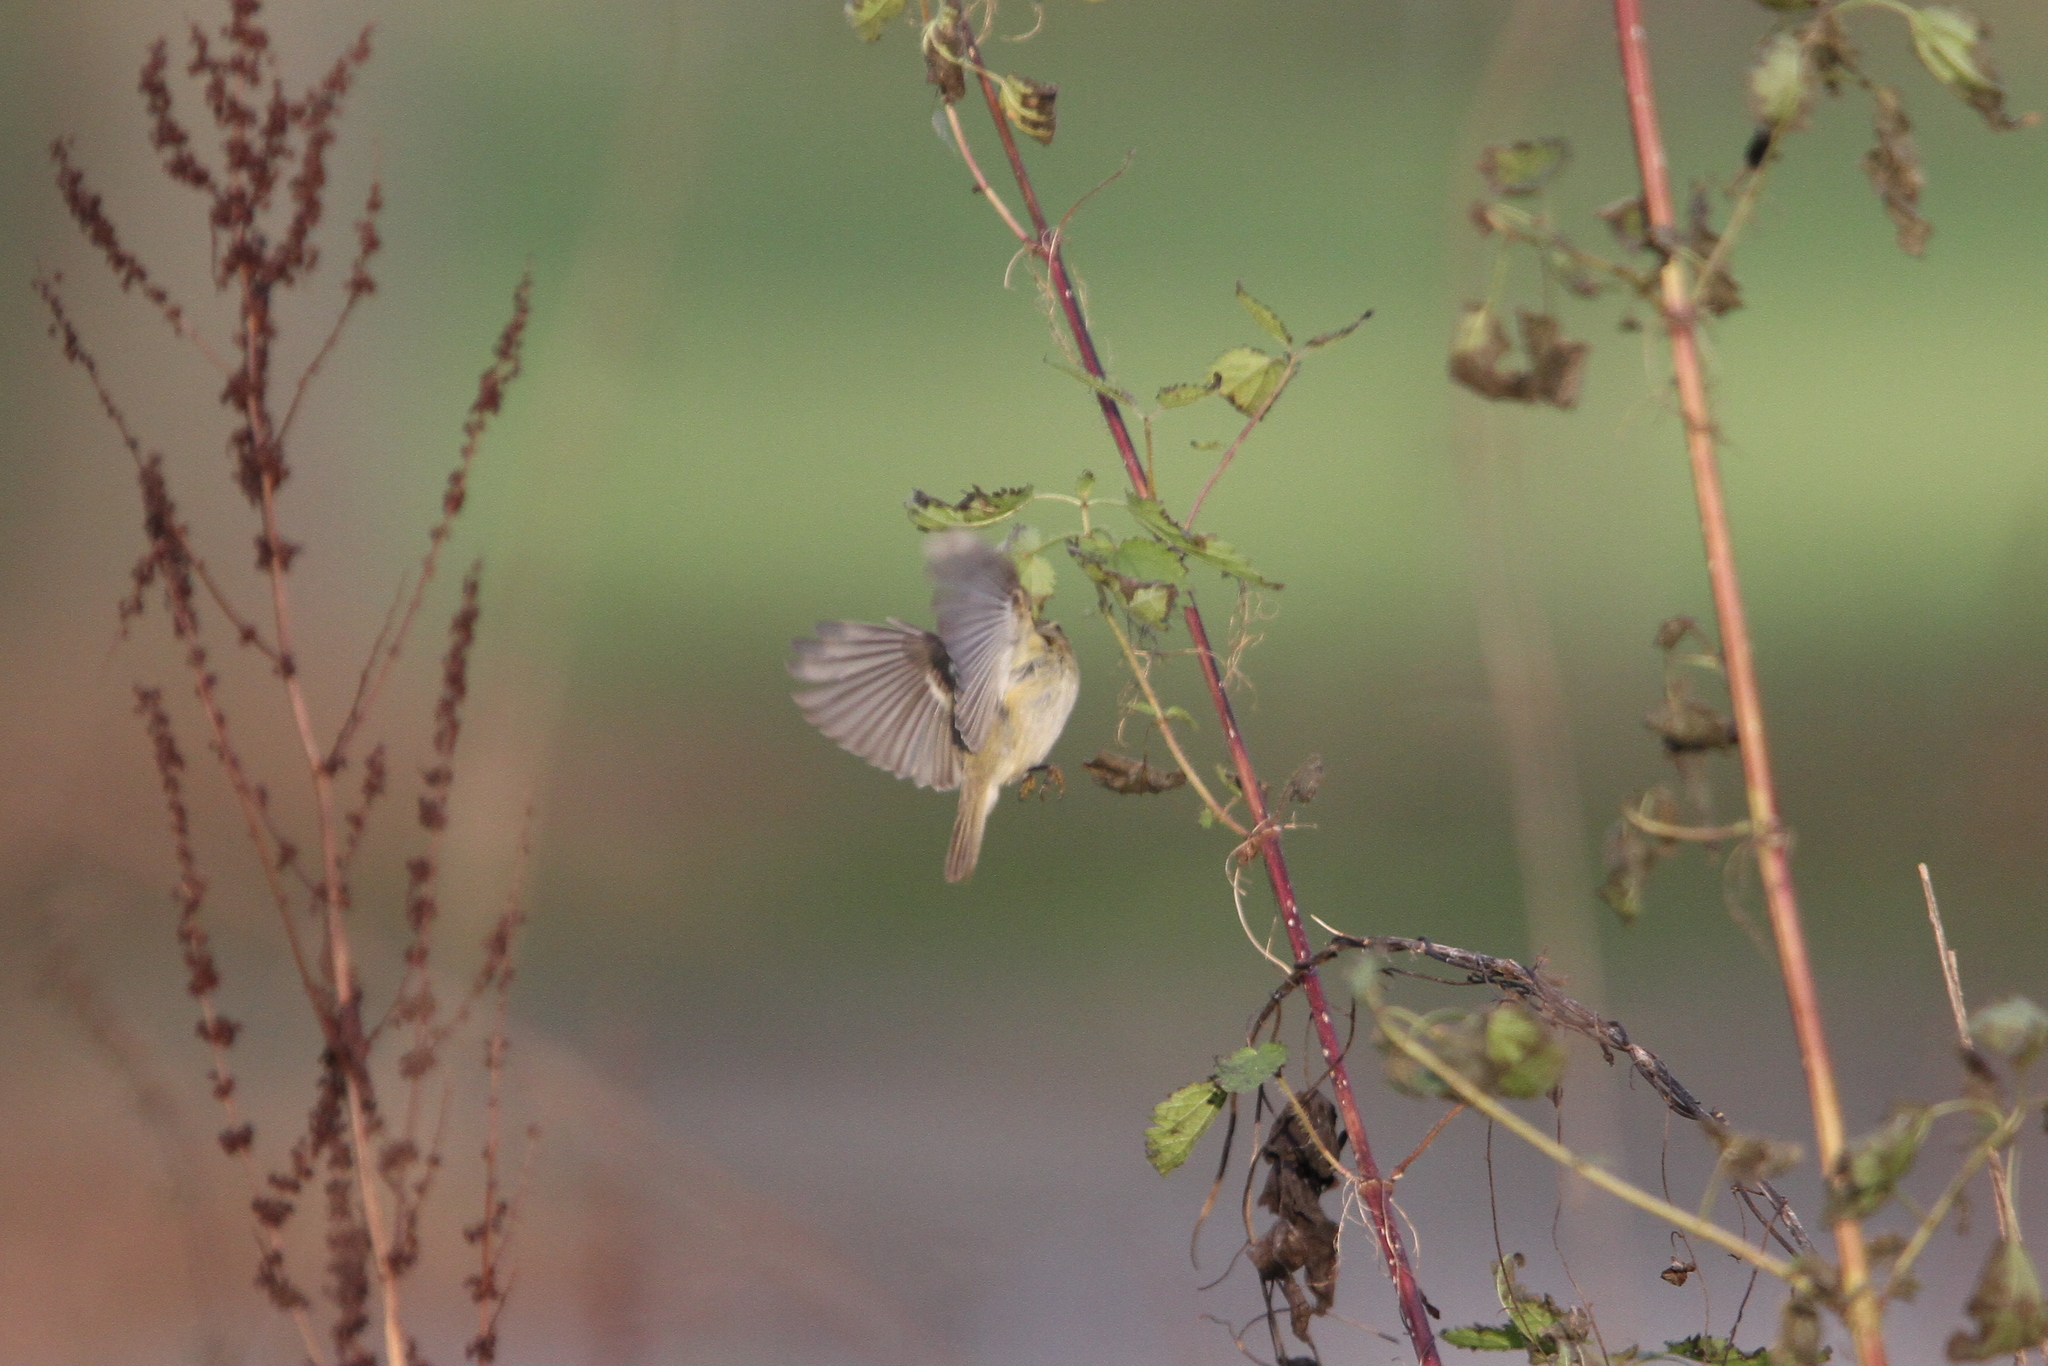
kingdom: Animalia
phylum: Chordata
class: Aves
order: Passeriformes
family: Phylloscopidae
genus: Phylloscopus
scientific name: Phylloscopus humei
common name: Hume's leaf warbler
